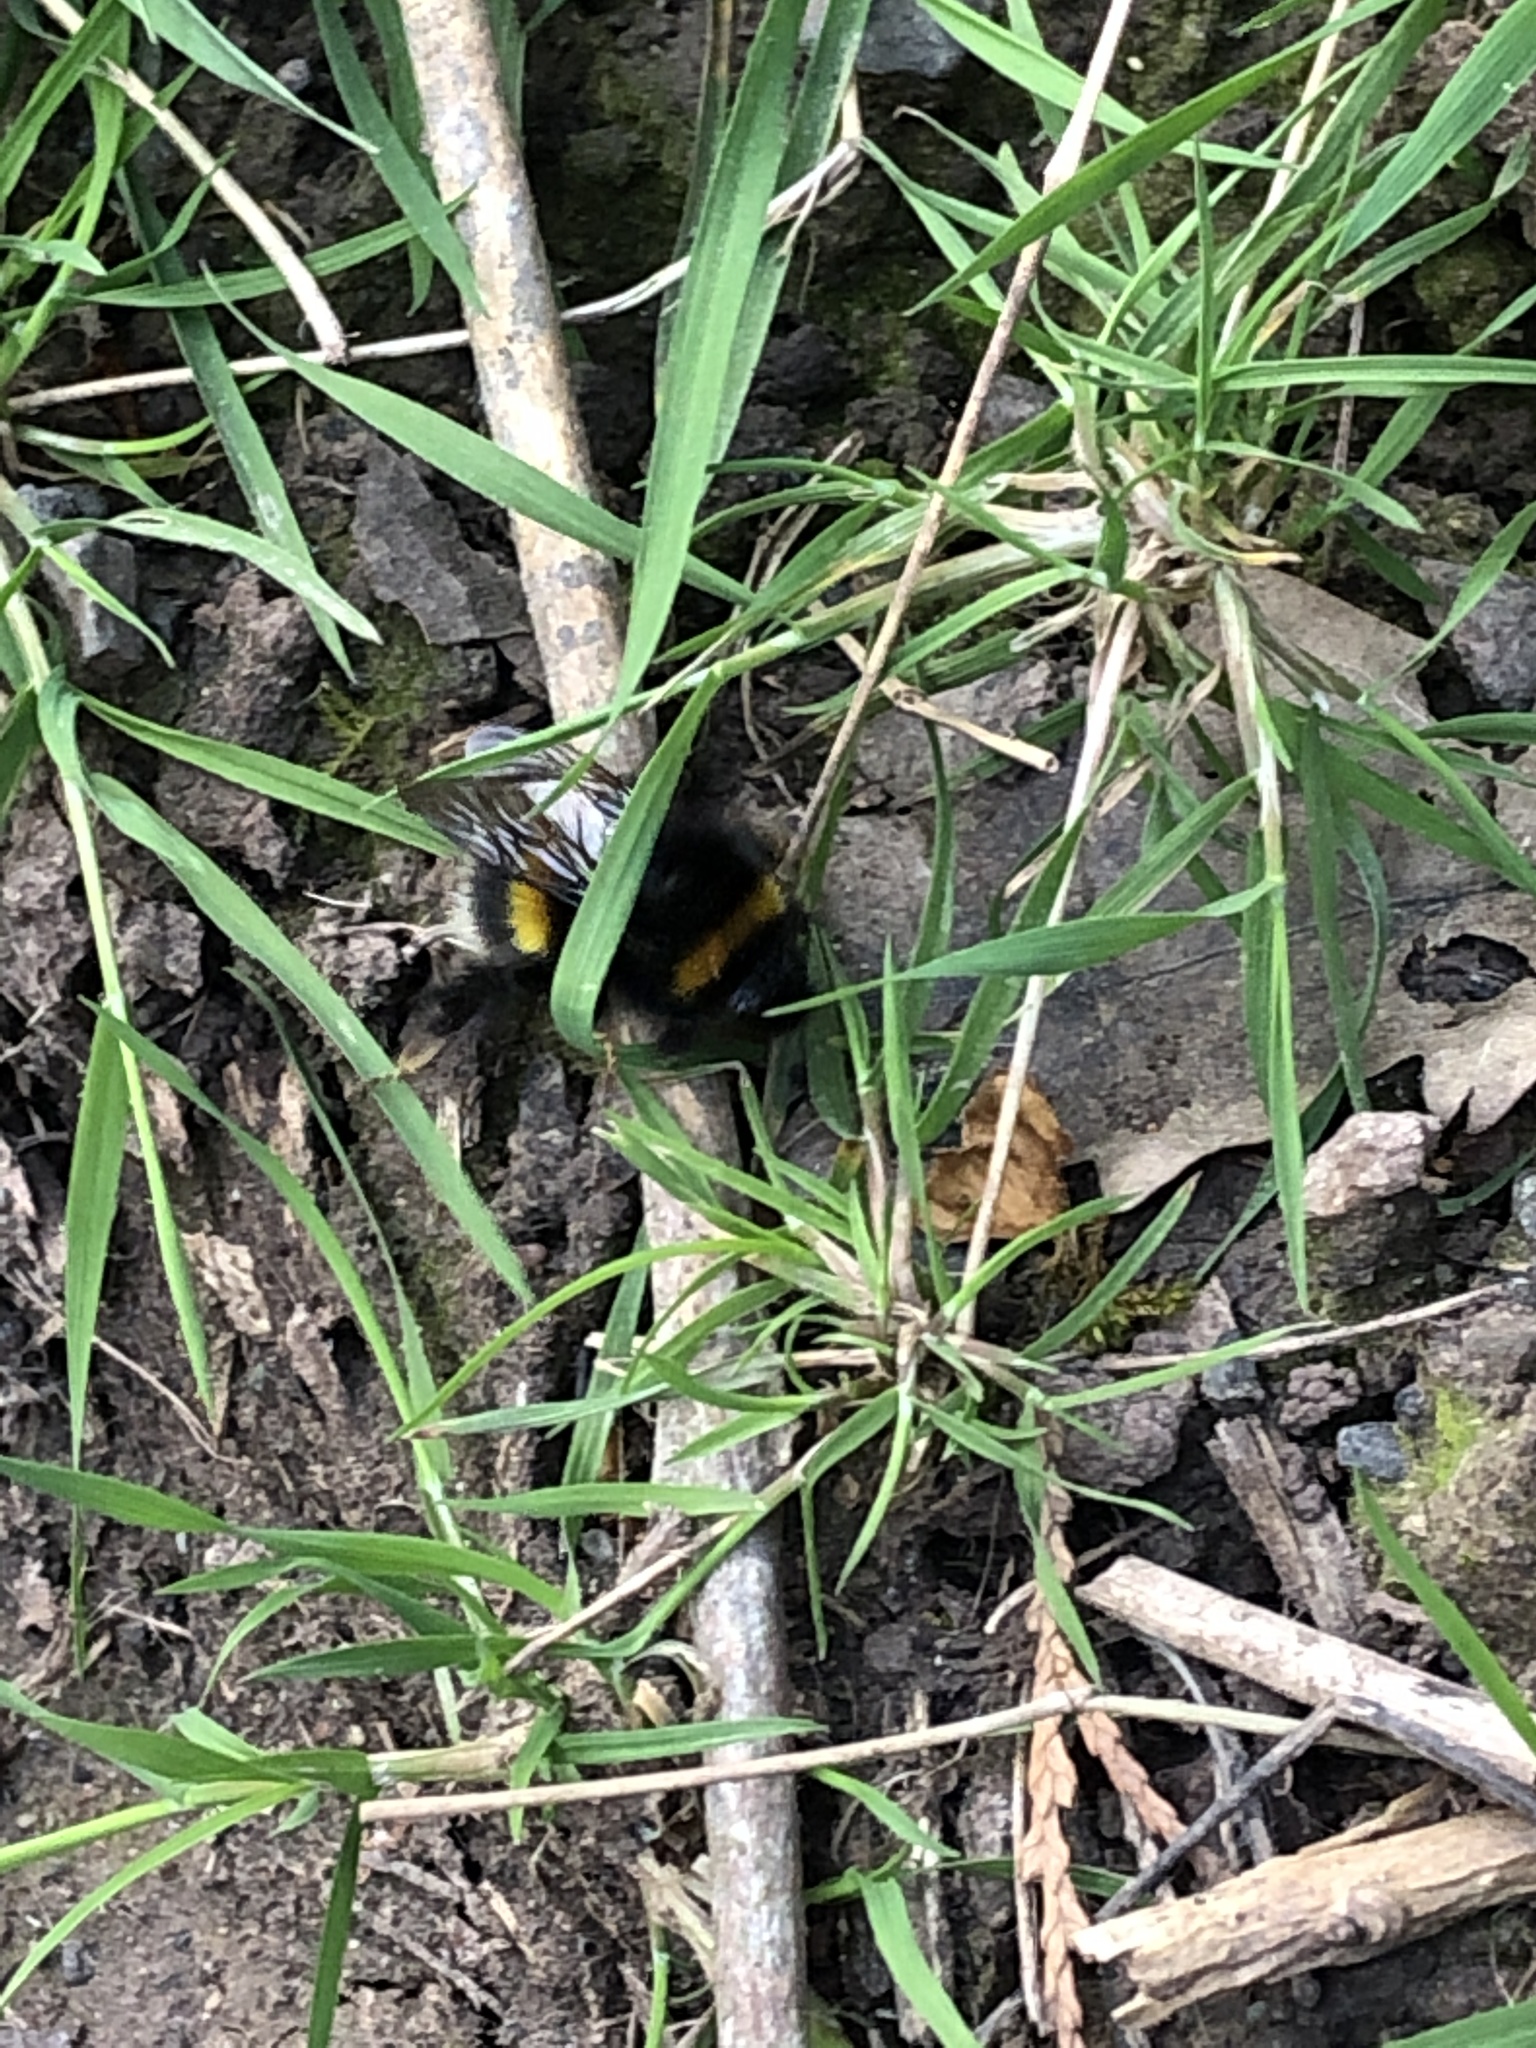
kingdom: Animalia
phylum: Arthropoda
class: Insecta
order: Hymenoptera
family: Apidae
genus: Bombus
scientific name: Bombus
